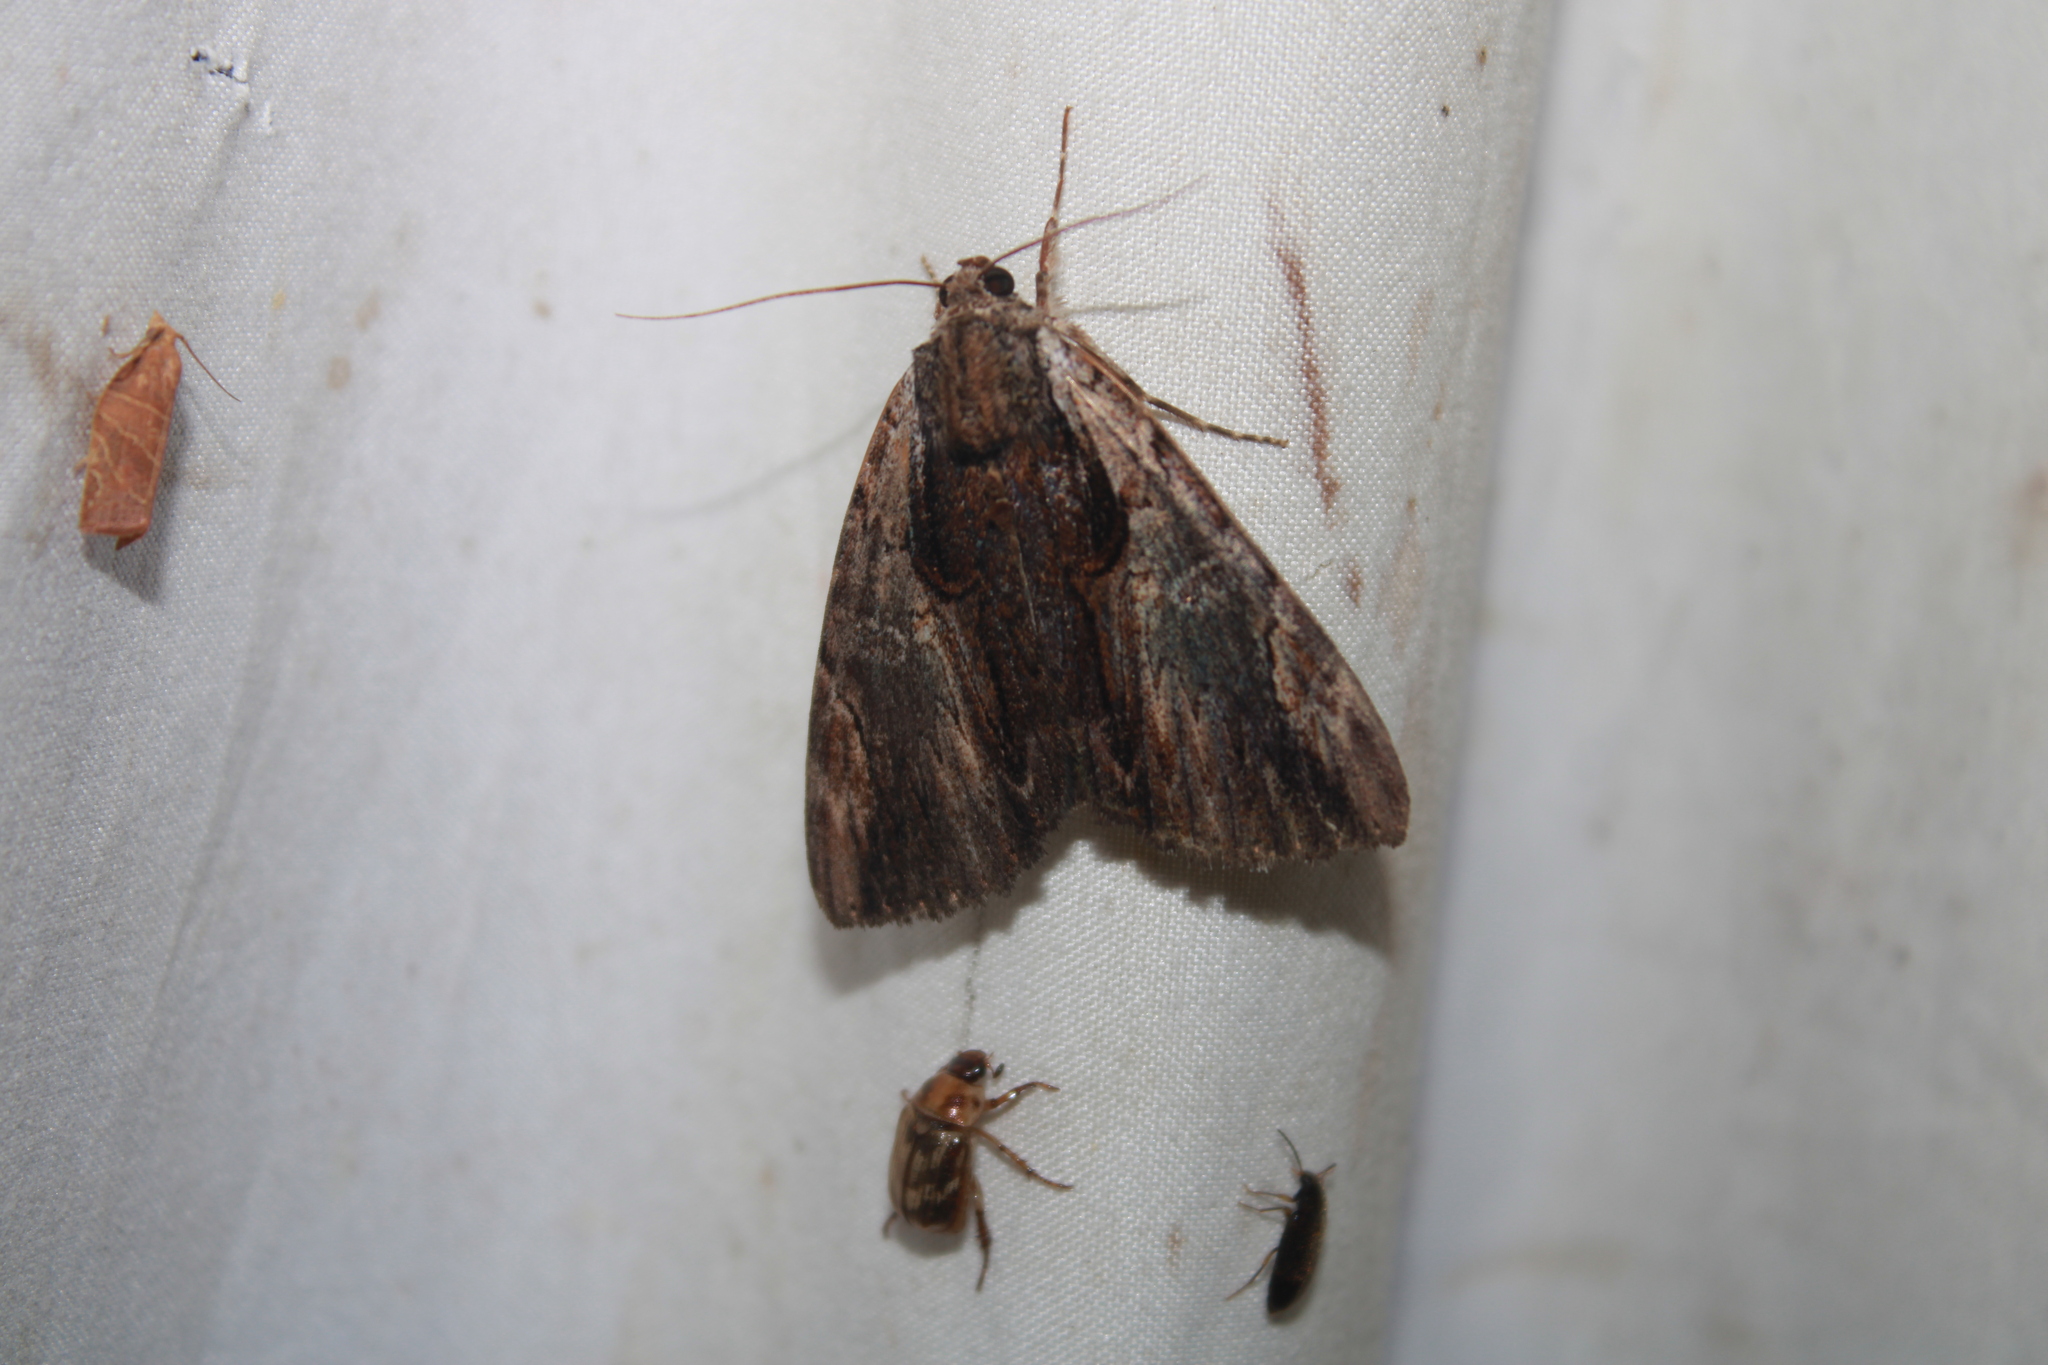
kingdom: Animalia
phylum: Arthropoda
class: Insecta
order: Lepidoptera
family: Erebidae
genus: Catocala
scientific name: Catocala ultronia
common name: Ultronia underwing
